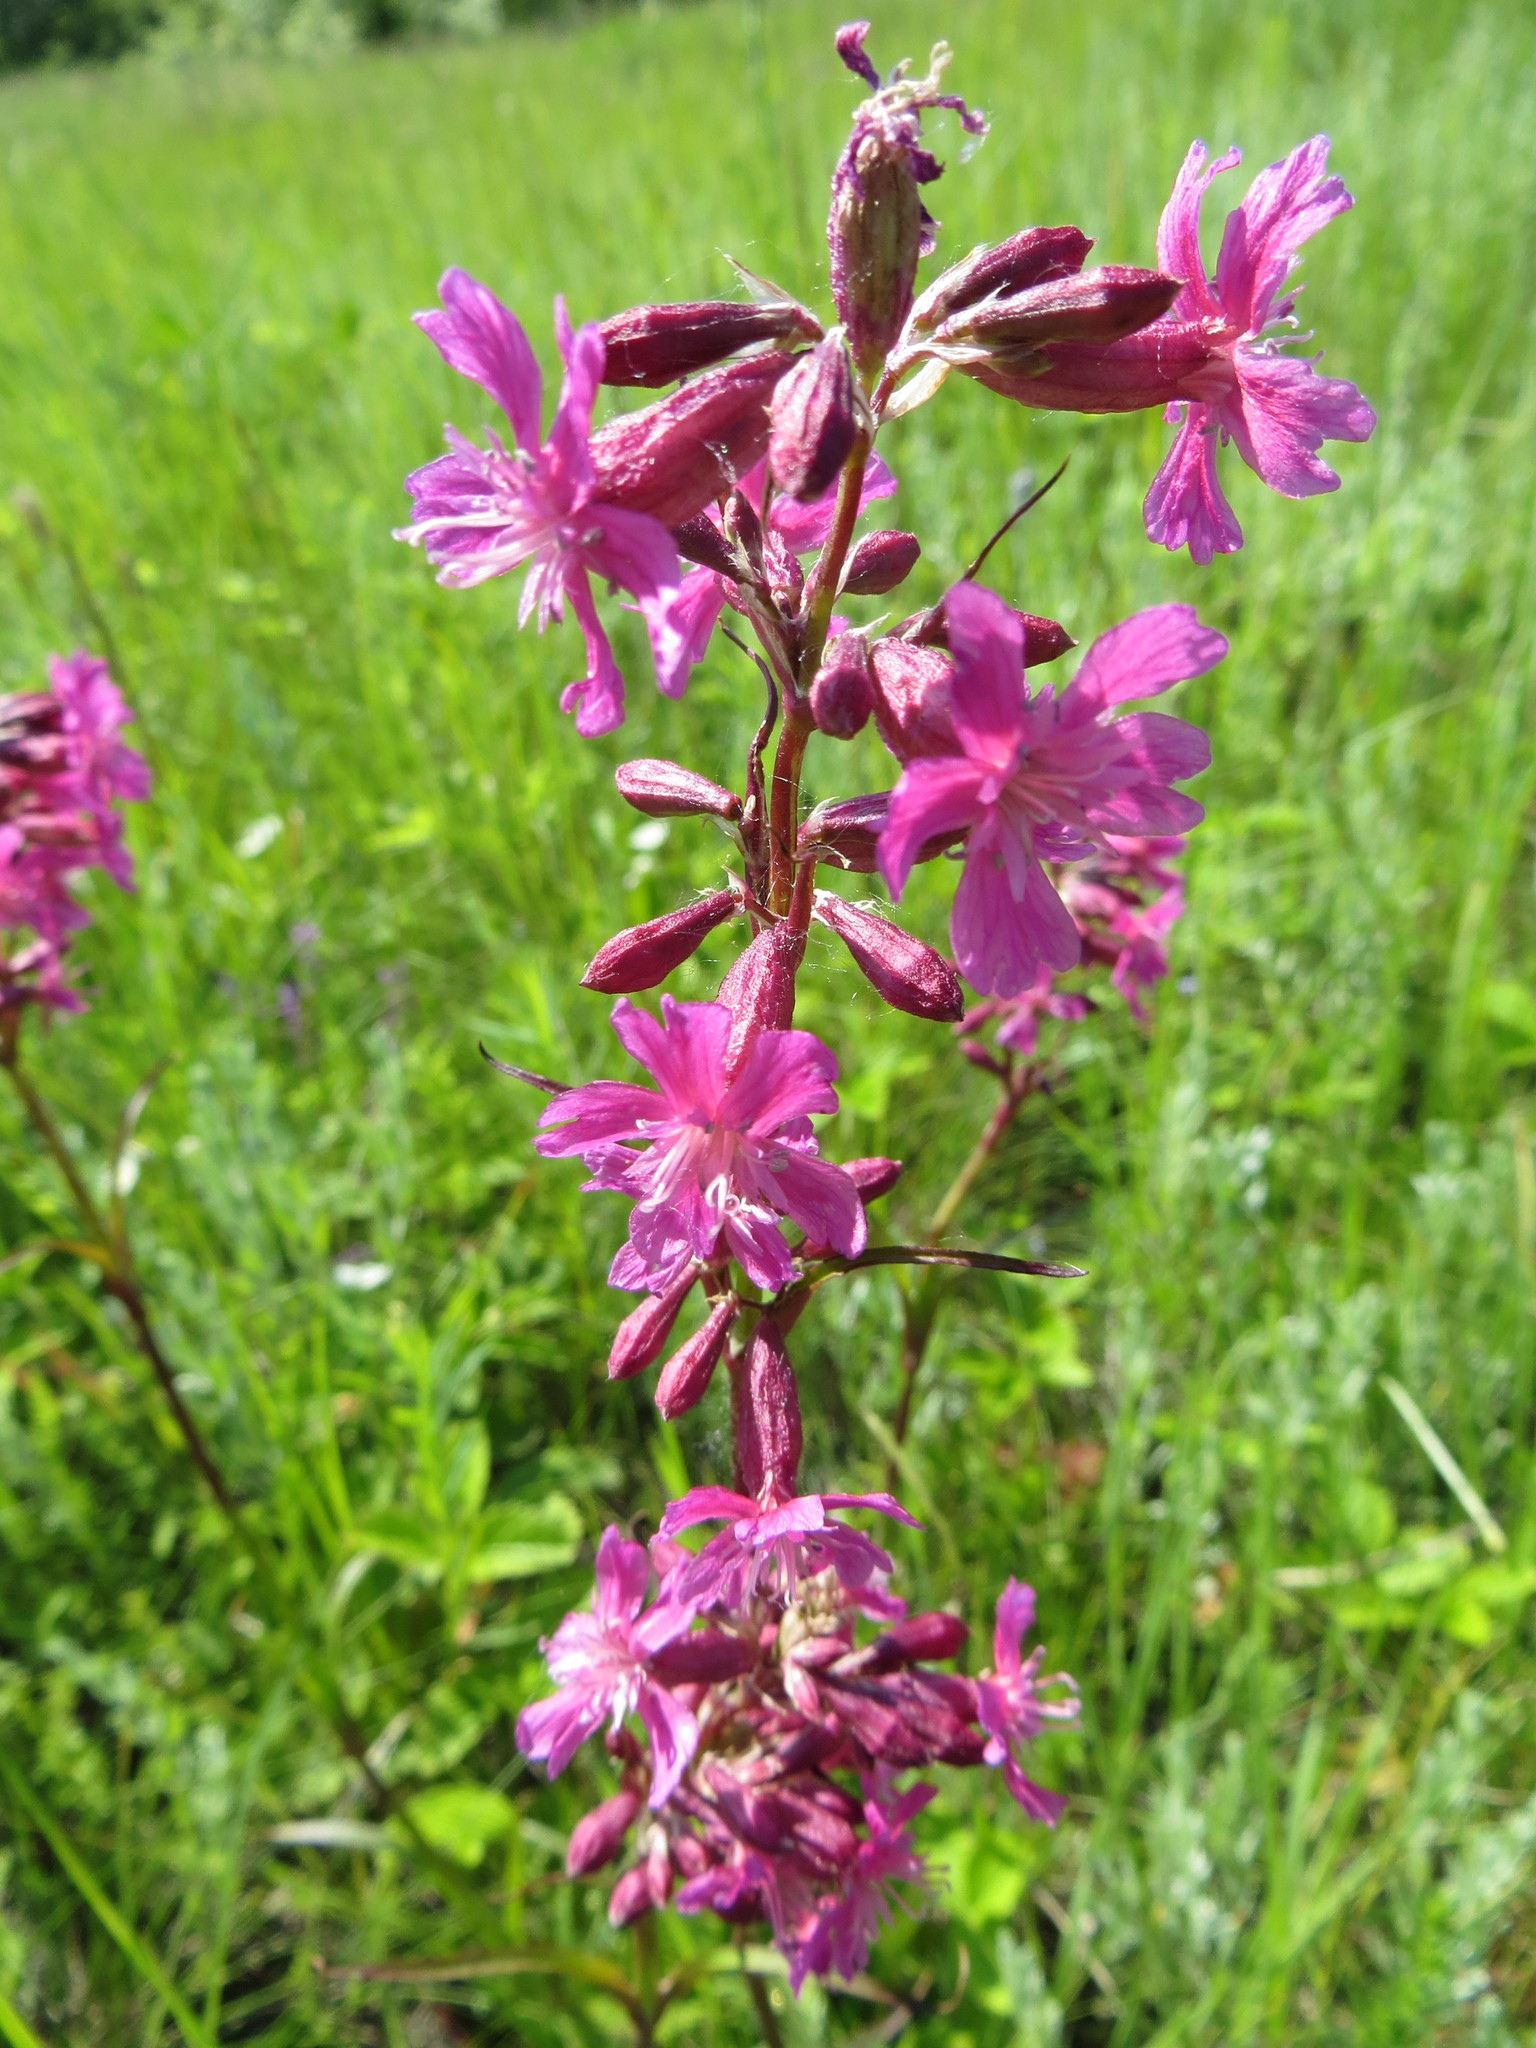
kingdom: Plantae
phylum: Tracheophyta
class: Magnoliopsida
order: Caryophyllales
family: Caryophyllaceae
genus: Viscaria
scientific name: Viscaria vulgaris
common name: Clammy campion
